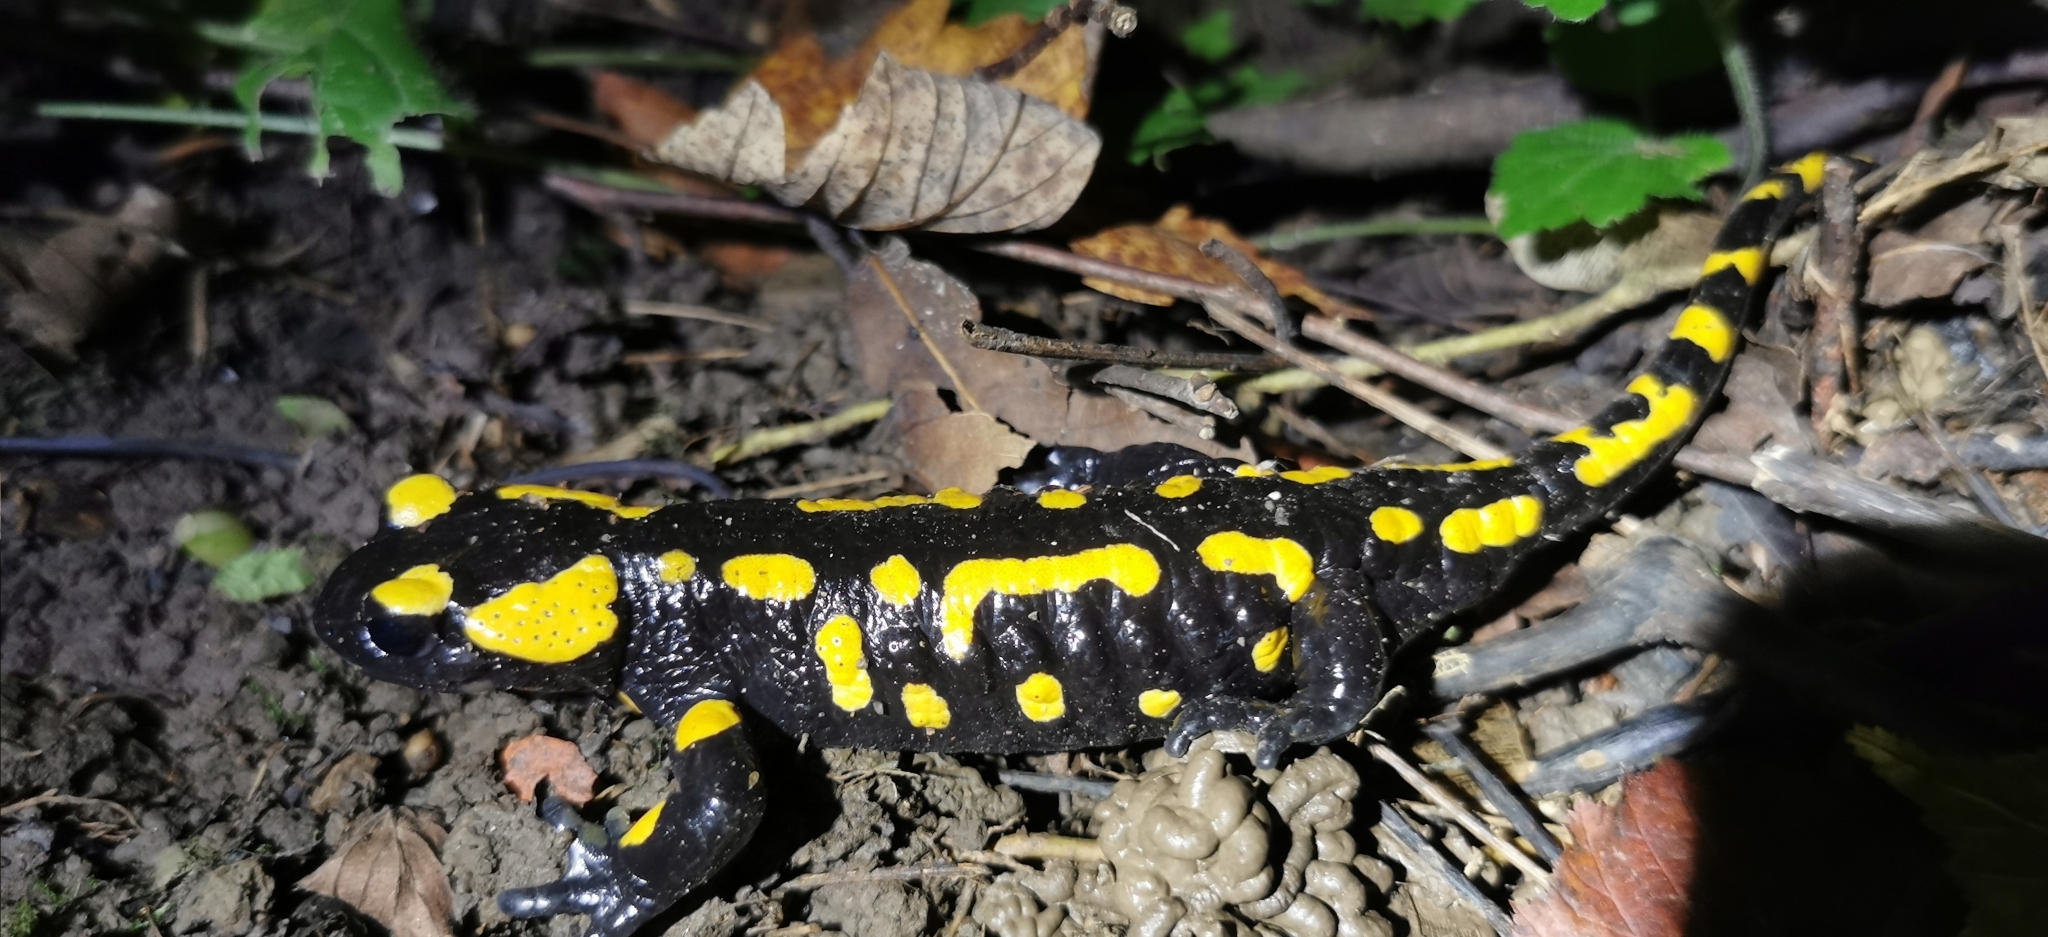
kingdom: Animalia
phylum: Chordata
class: Amphibia
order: Caudata
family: Salamandridae
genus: Salamandra
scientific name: Salamandra salamandra
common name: Fire salamander
